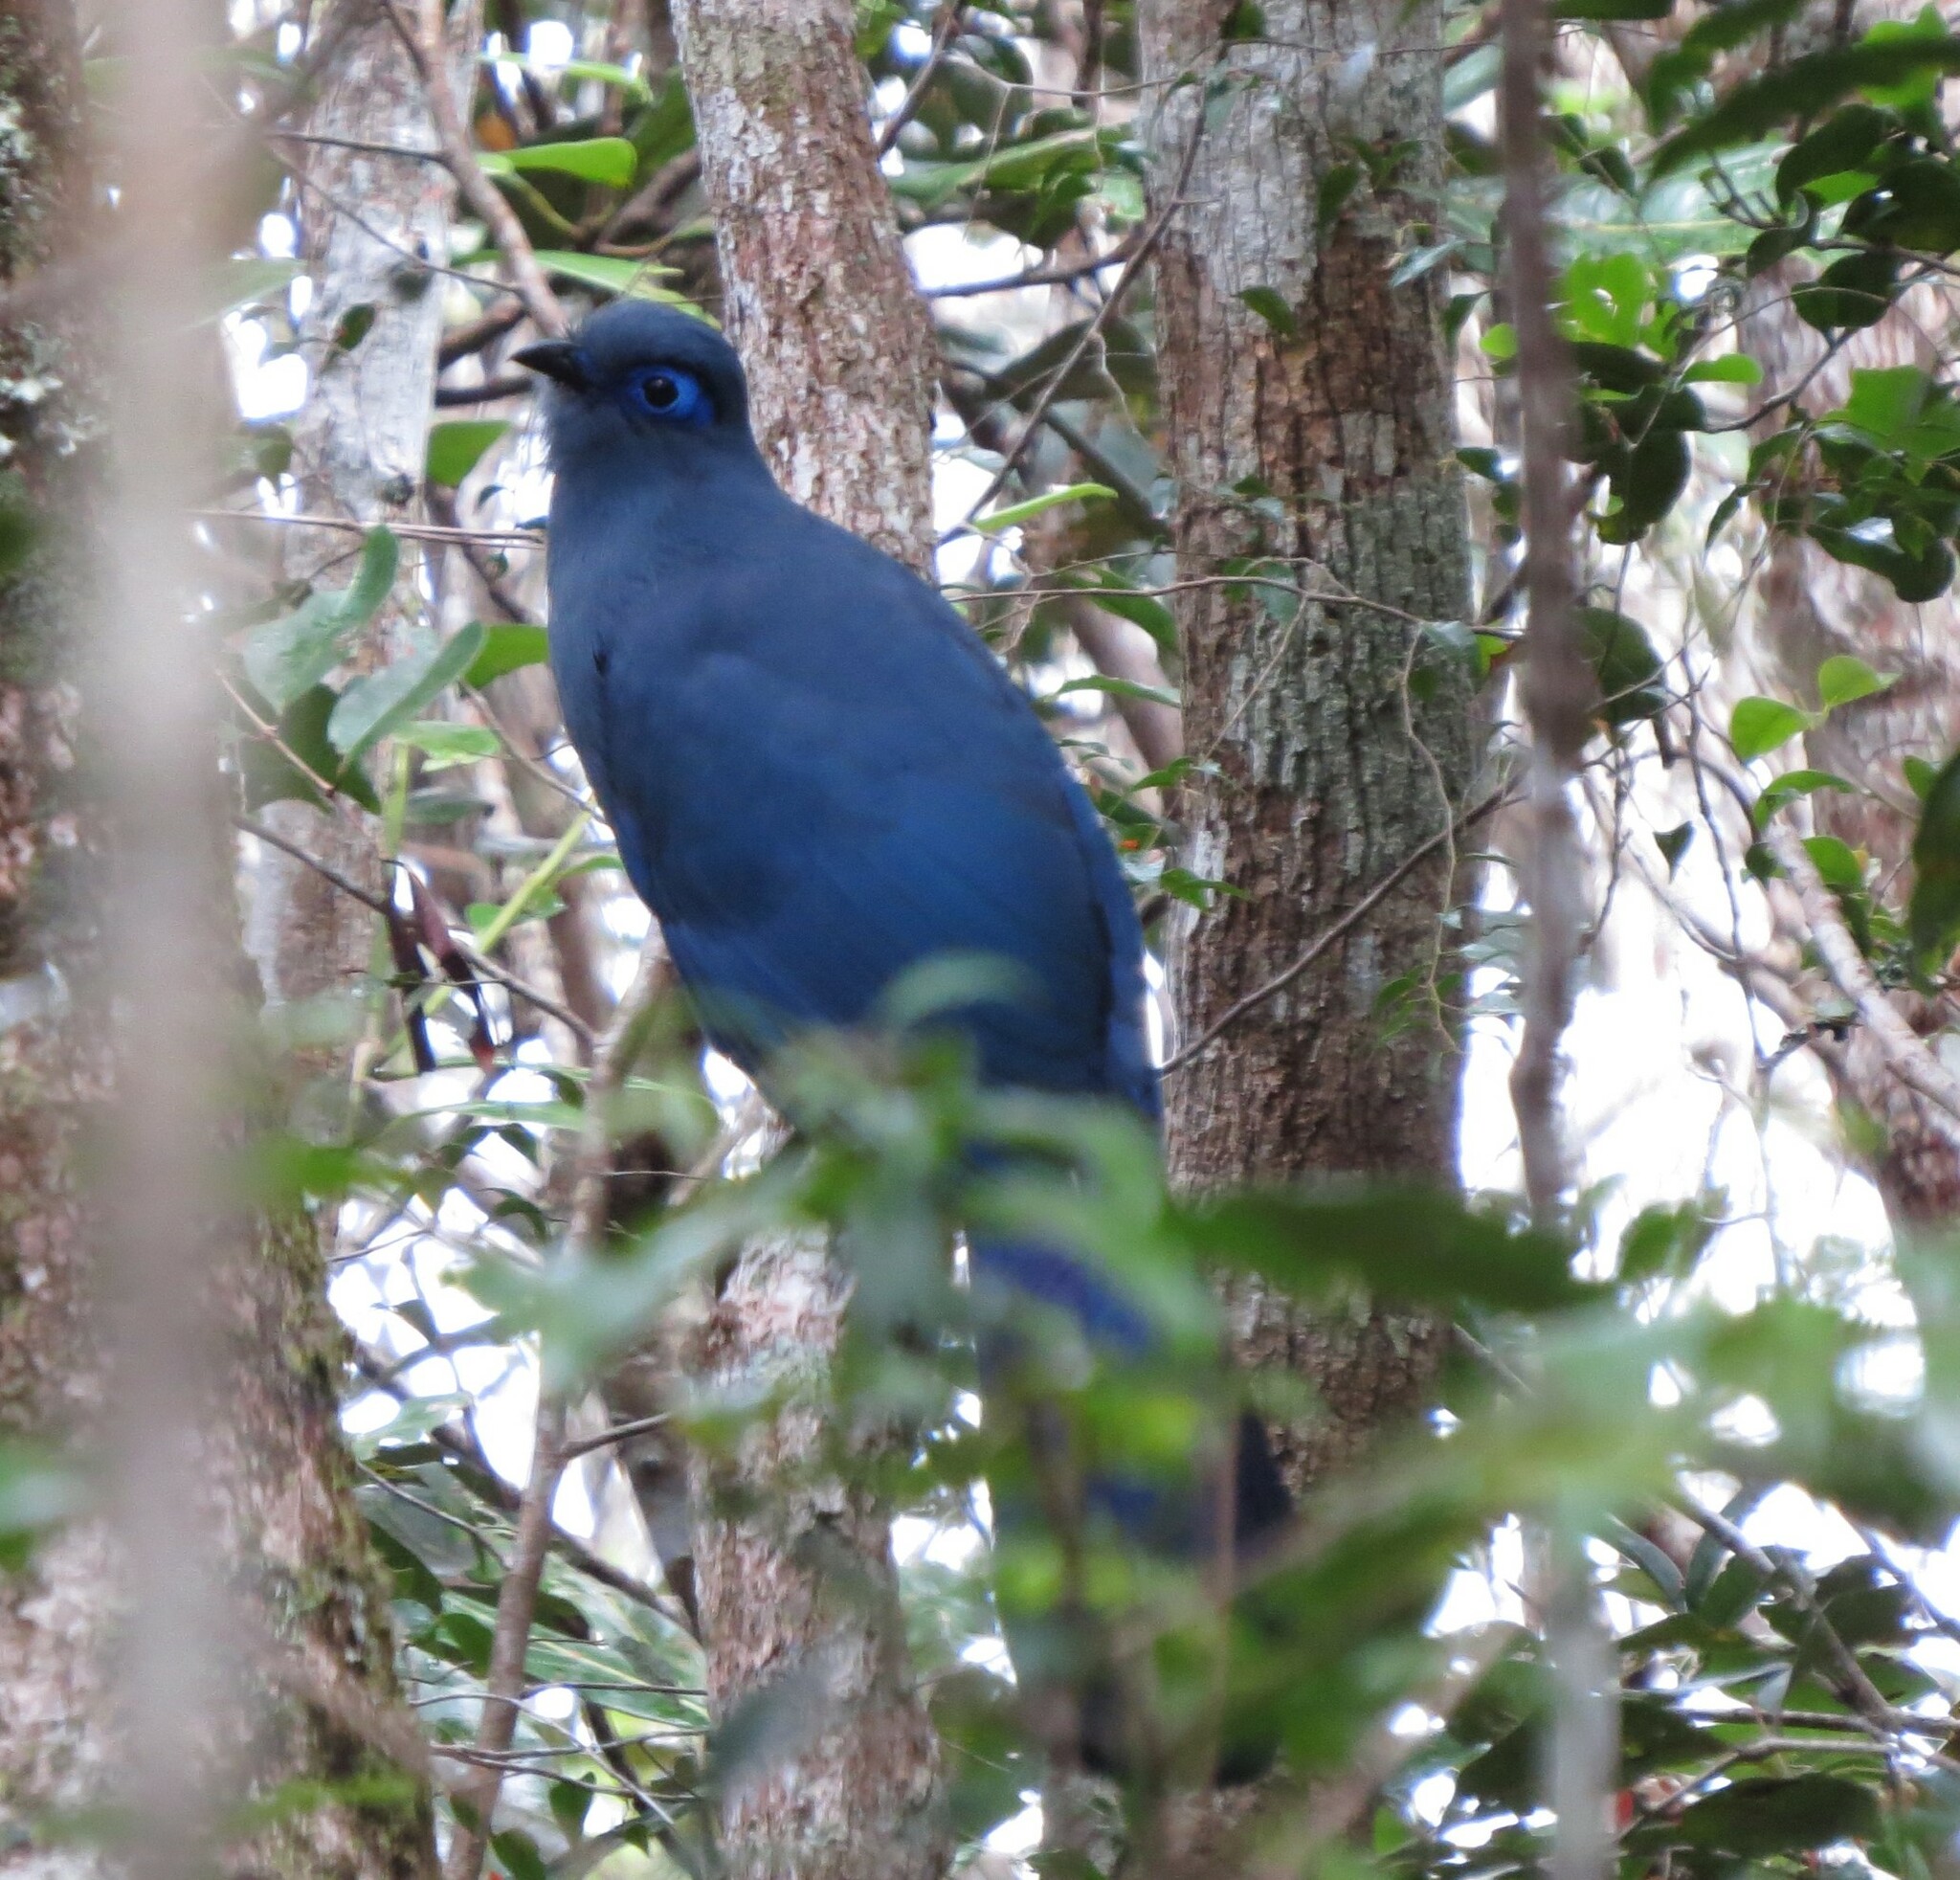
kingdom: Animalia
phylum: Chordata
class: Aves
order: Cuculiformes
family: Cuculidae
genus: Coua
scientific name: Coua caerulea
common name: Blue coua
